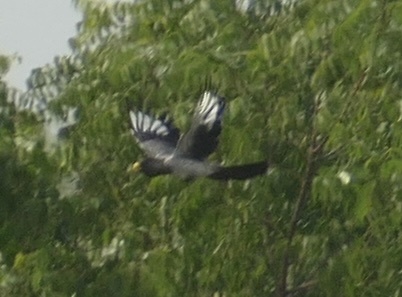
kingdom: Animalia
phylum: Chordata
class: Aves
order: Musophagiformes
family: Musophagidae
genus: Crinifer
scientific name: Crinifer piscator
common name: Western plantain-eater
